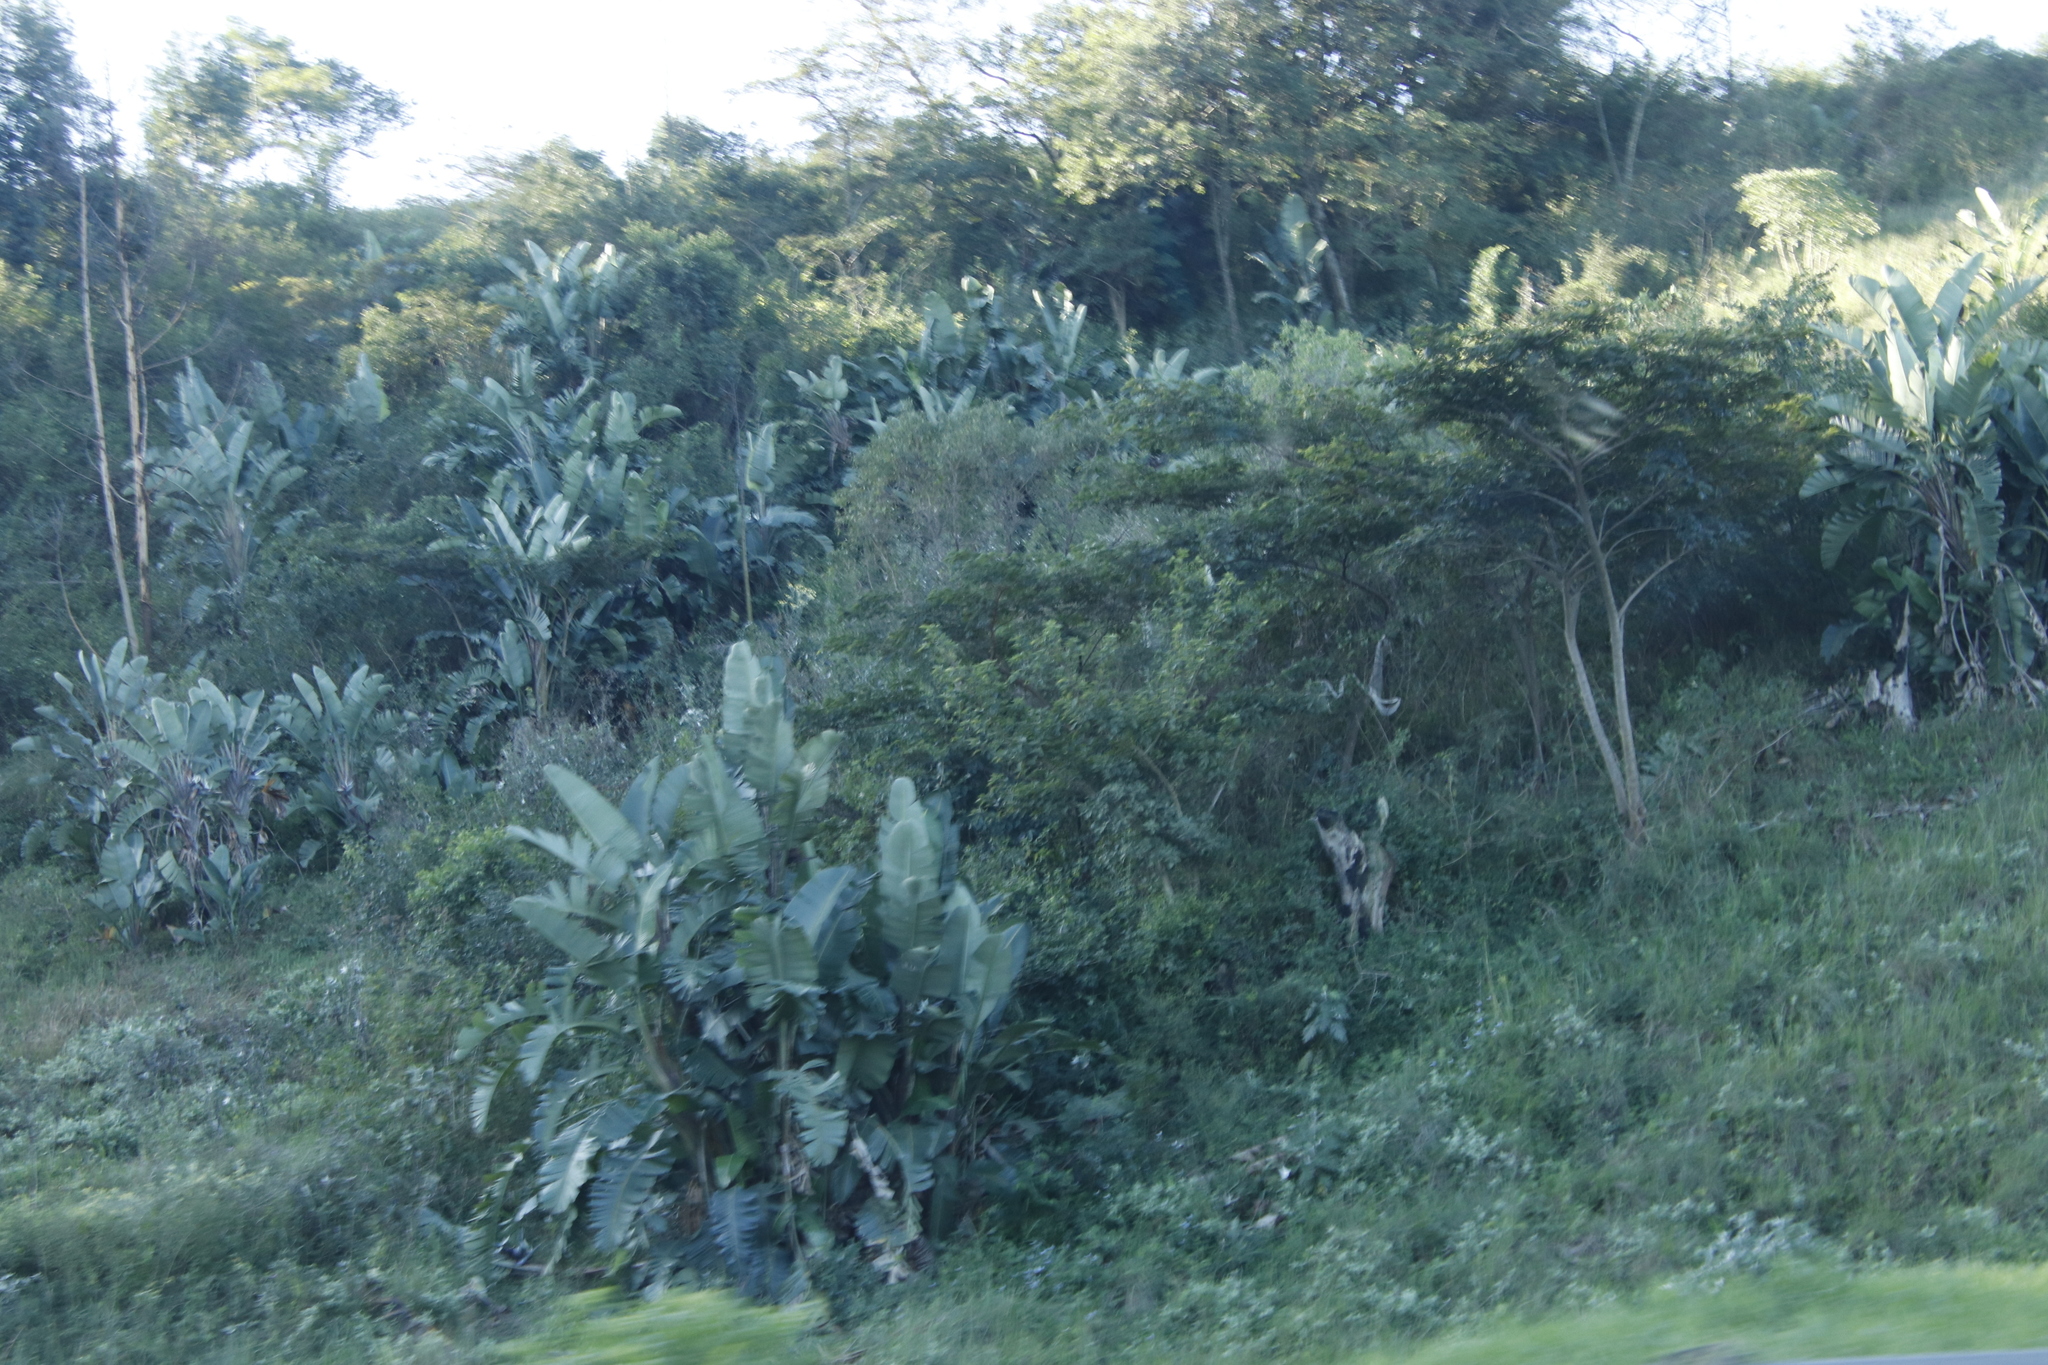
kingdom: Plantae
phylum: Tracheophyta
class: Liliopsida
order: Zingiberales
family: Strelitziaceae
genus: Strelitzia
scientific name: Strelitzia nicolai
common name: Bird-of-paradise tree
